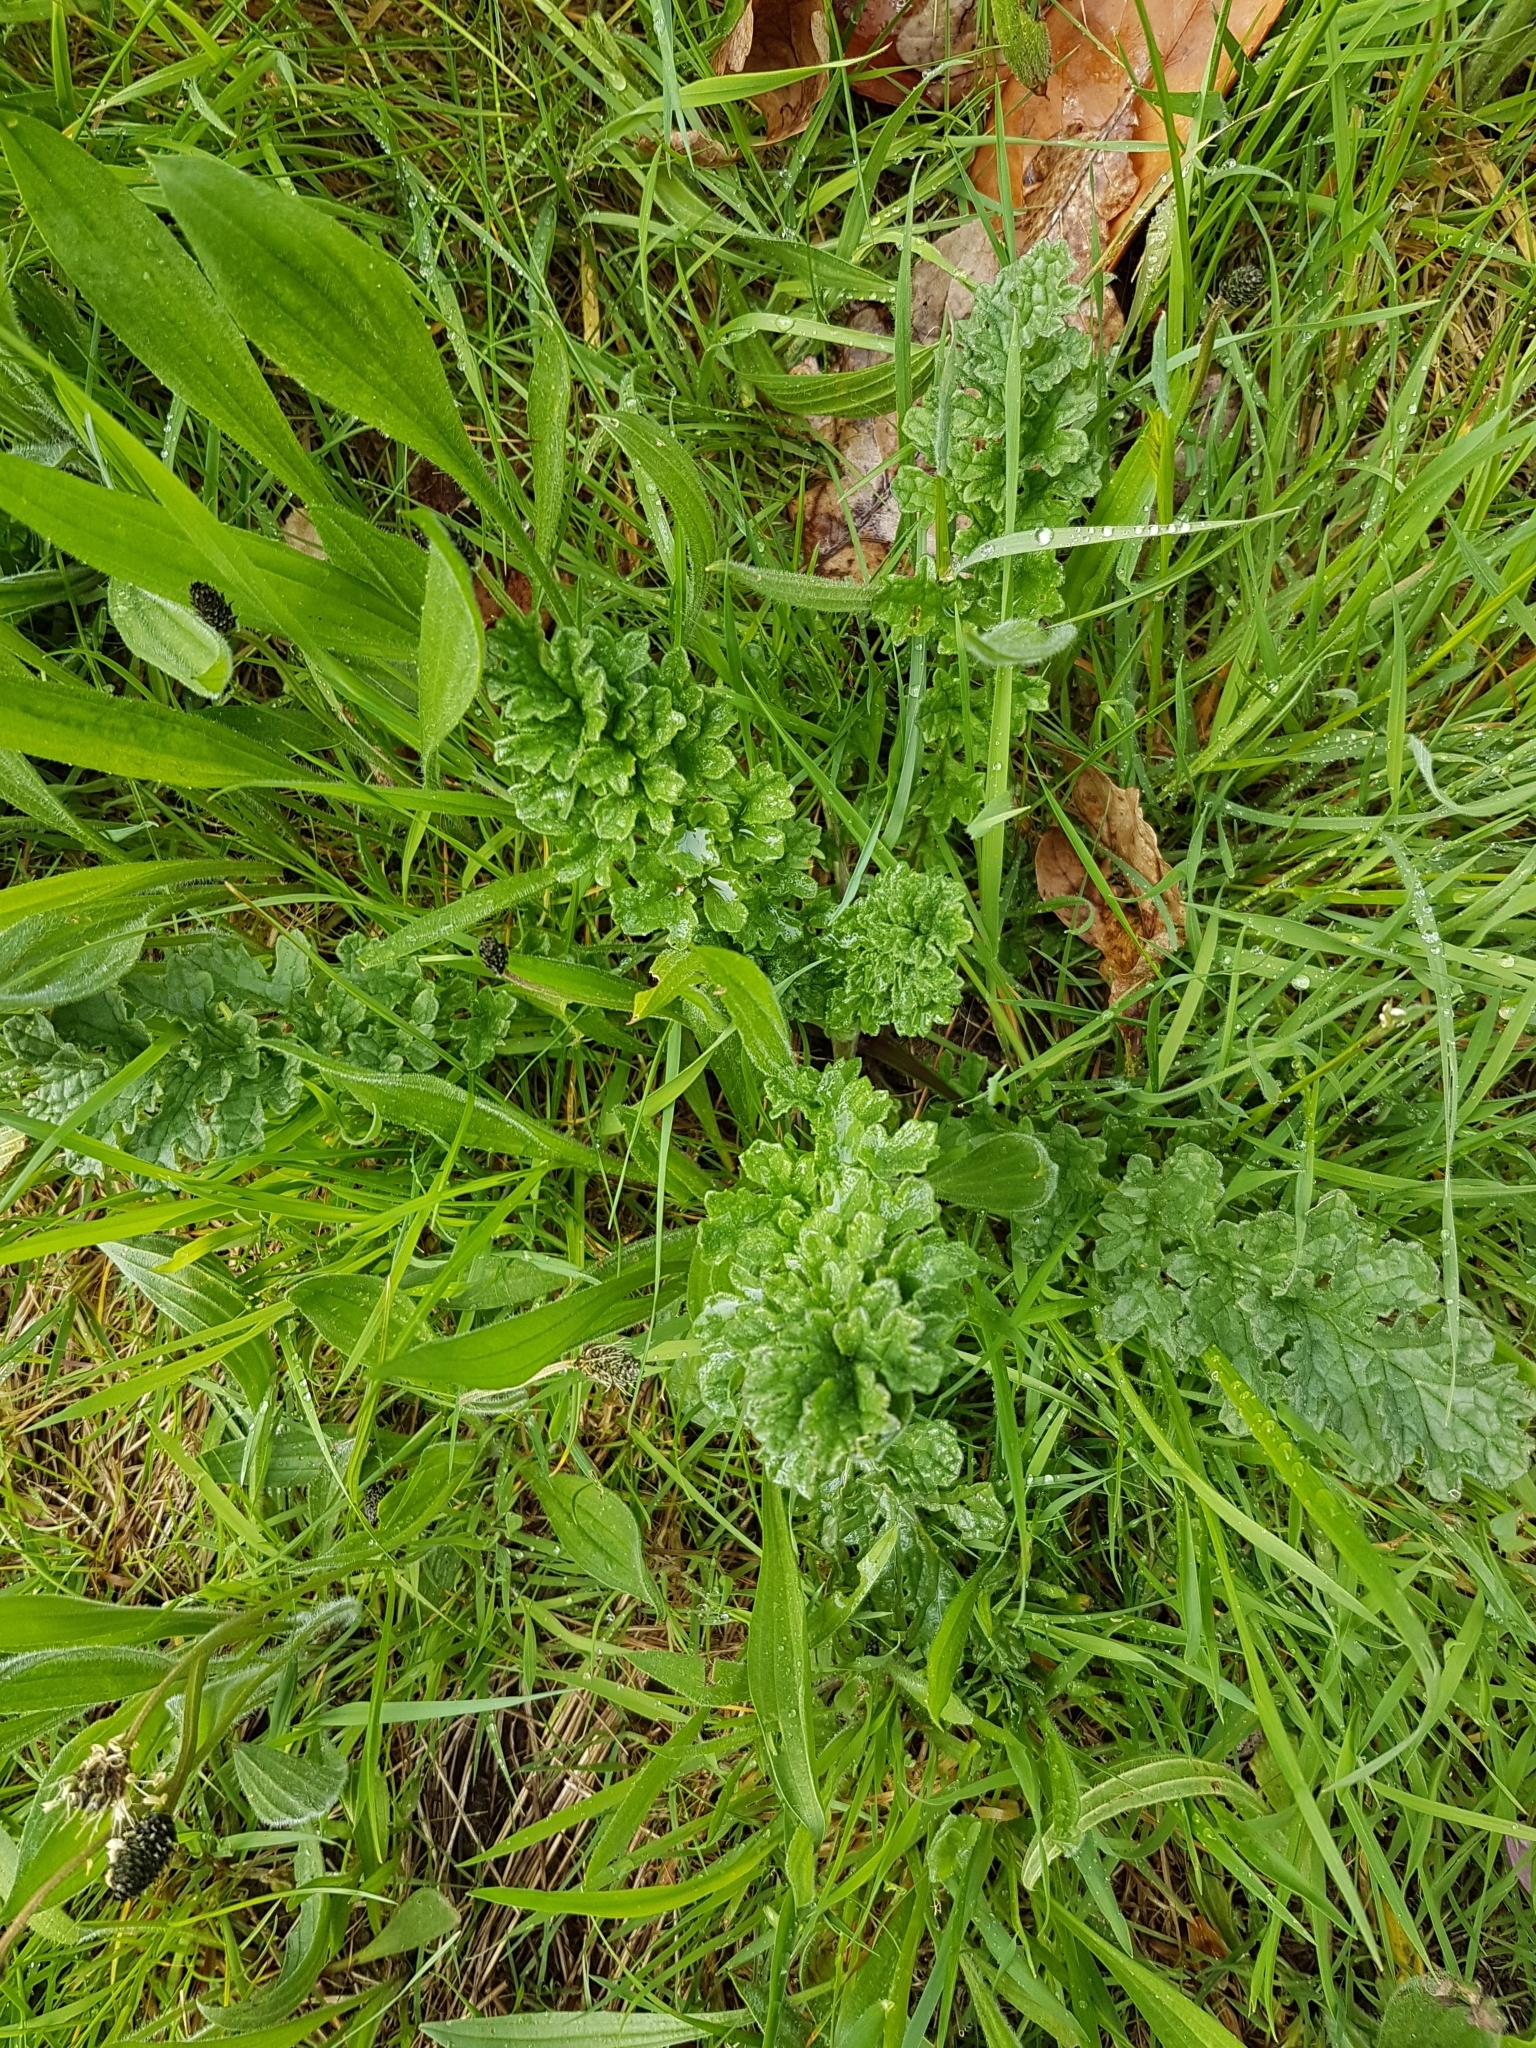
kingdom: Plantae
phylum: Tracheophyta
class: Magnoliopsida
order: Asterales
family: Asteraceae
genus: Jacobaea
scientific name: Jacobaea vulgaris
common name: Stinking willie
